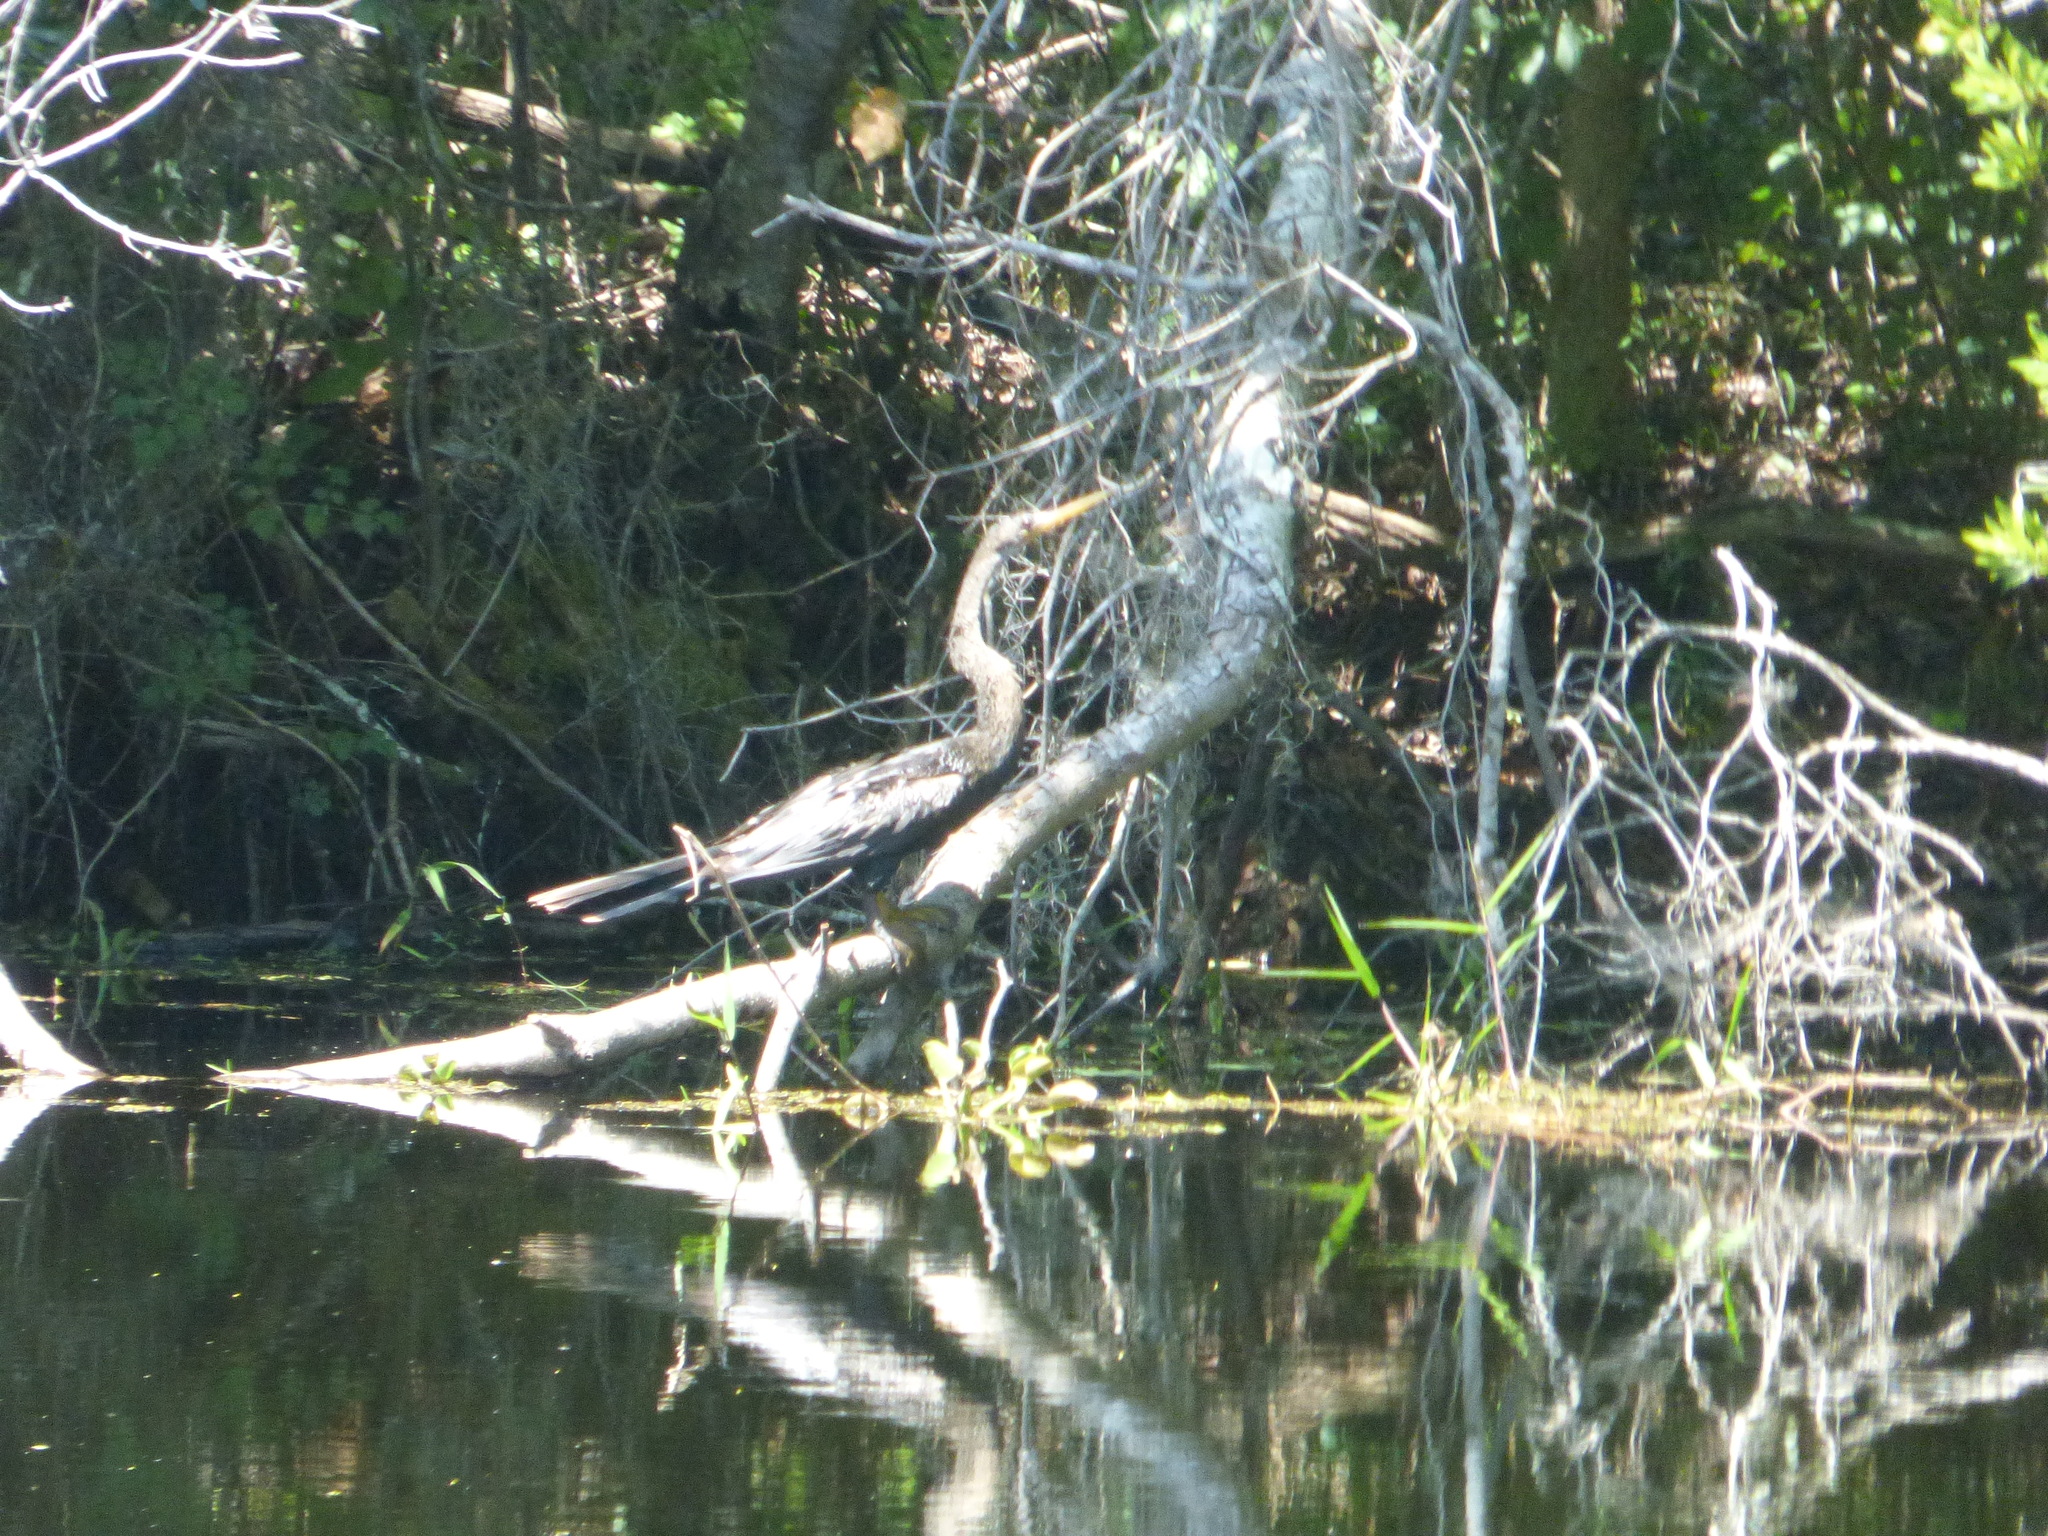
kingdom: Animalia
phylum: Chordata
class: Aves
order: Suliformes
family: Anhingidae
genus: Anhinga
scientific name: Anhinga anhinga
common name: Anhinga
